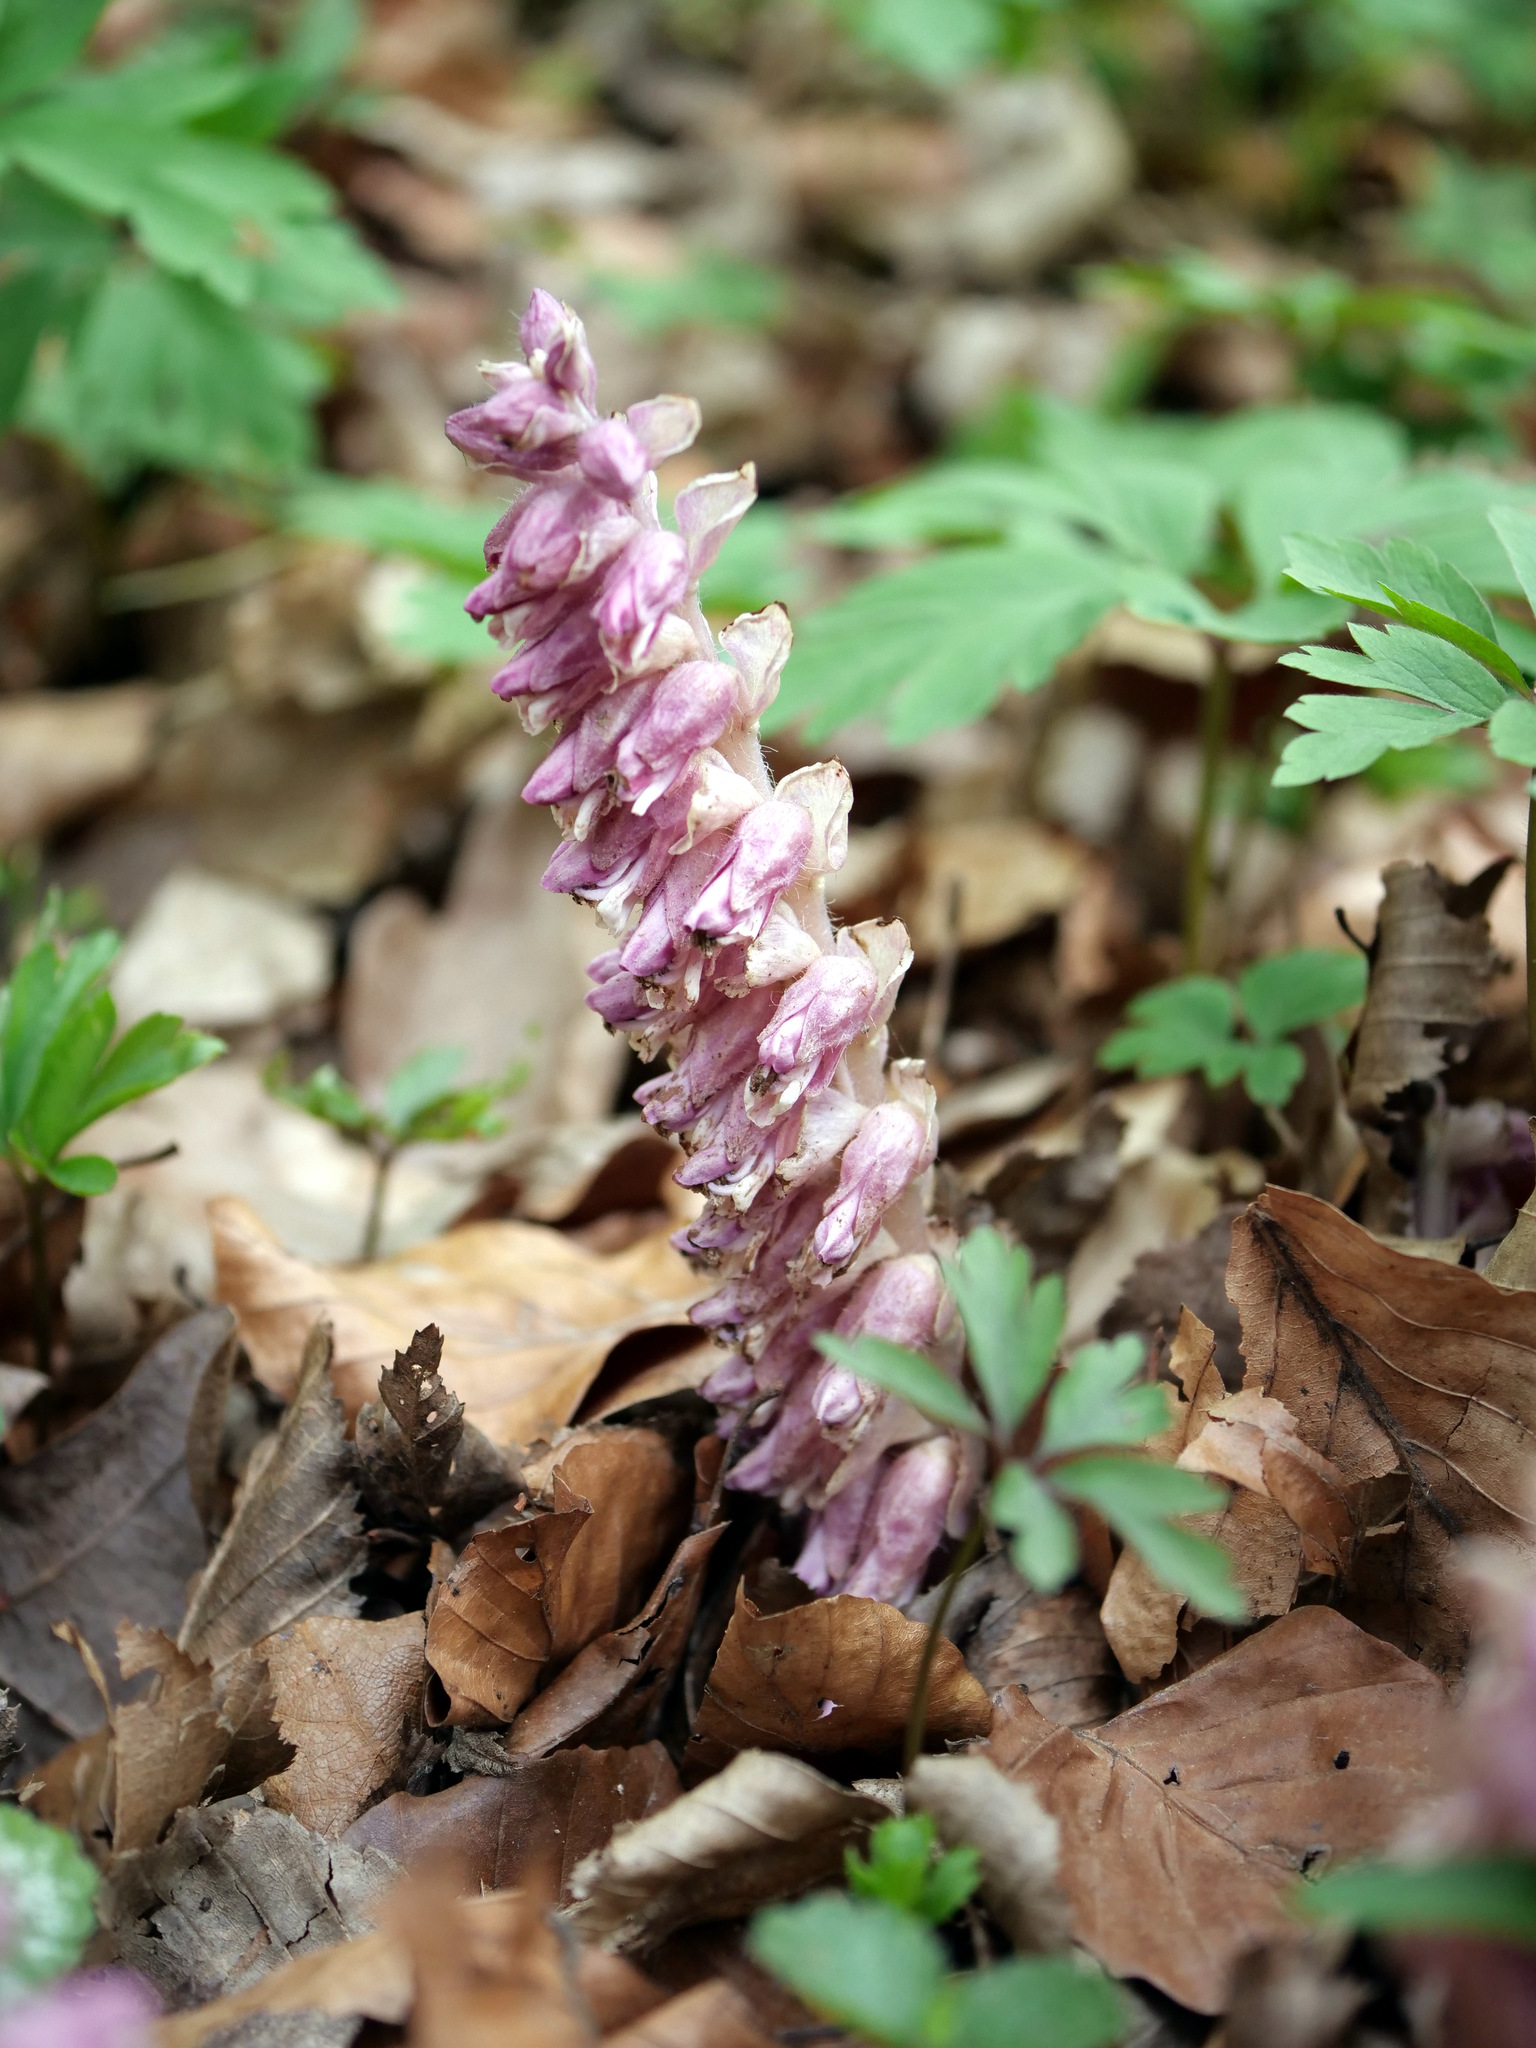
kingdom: Plantae
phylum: Tracheophyta
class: Magnoliopsida
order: Lamiales
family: Orobanchaceae
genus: Lathraea
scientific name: Lathraea squamaria
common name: Toothwort
